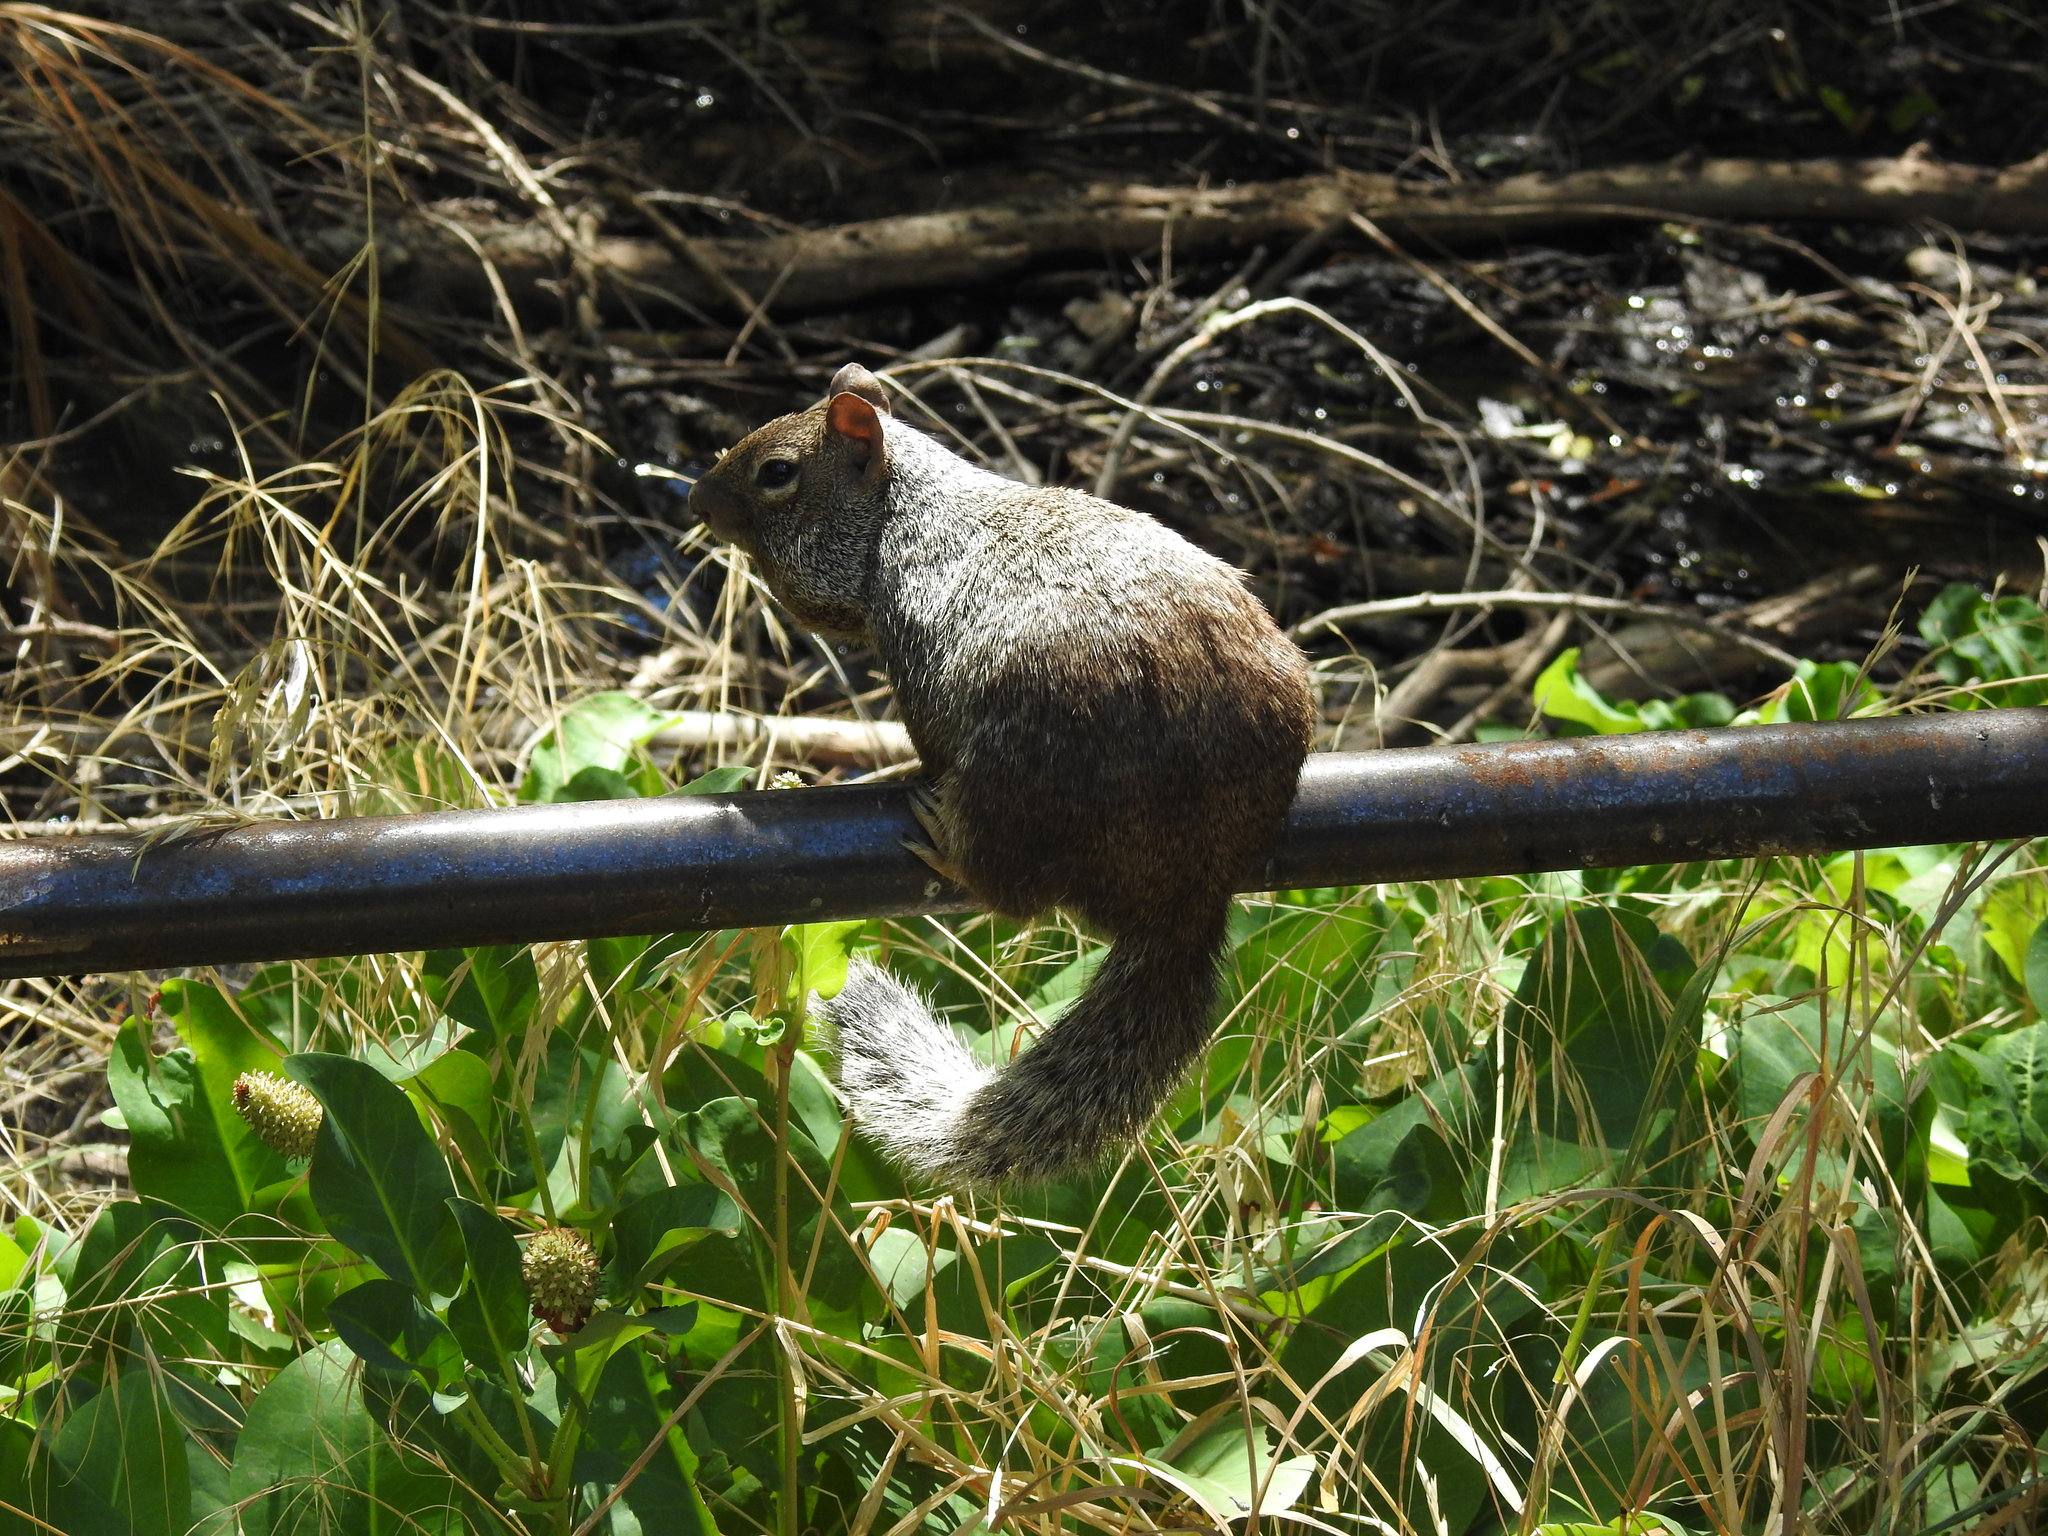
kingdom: Animalia
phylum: Chordata
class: Mammalia
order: Rodentia
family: Sciuridae
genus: Otospermophilus
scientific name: Otospermophilus variegatus
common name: Rock squirrel
